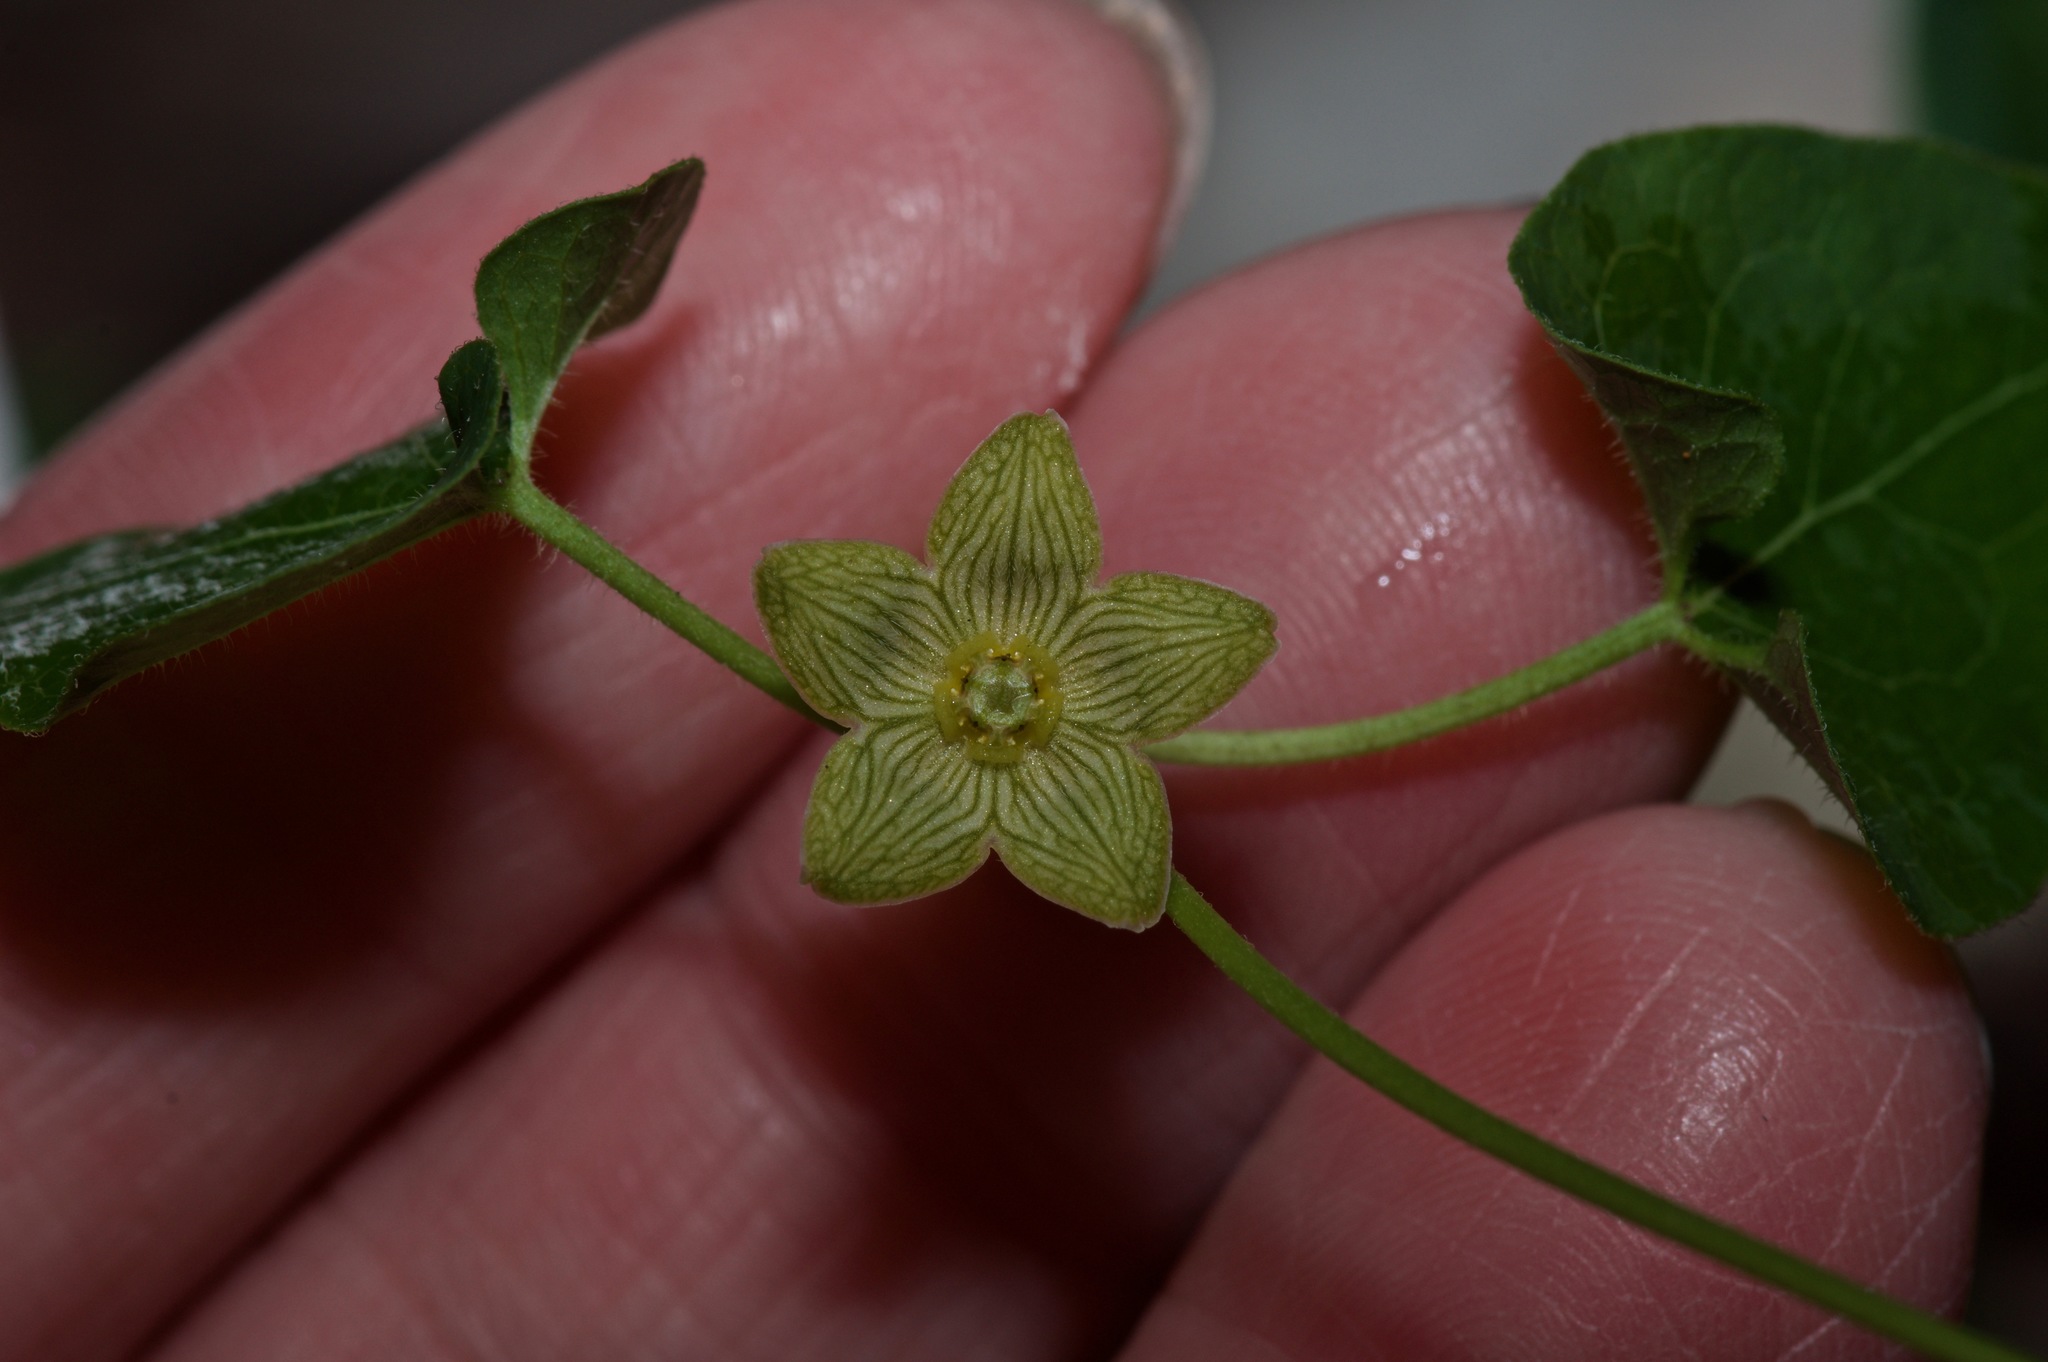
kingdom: Plantae
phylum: Tracheophyta
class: Magnoliopsida
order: Gentianales
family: Apocynaceae
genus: Matelea
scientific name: Matelea edwardsensis
